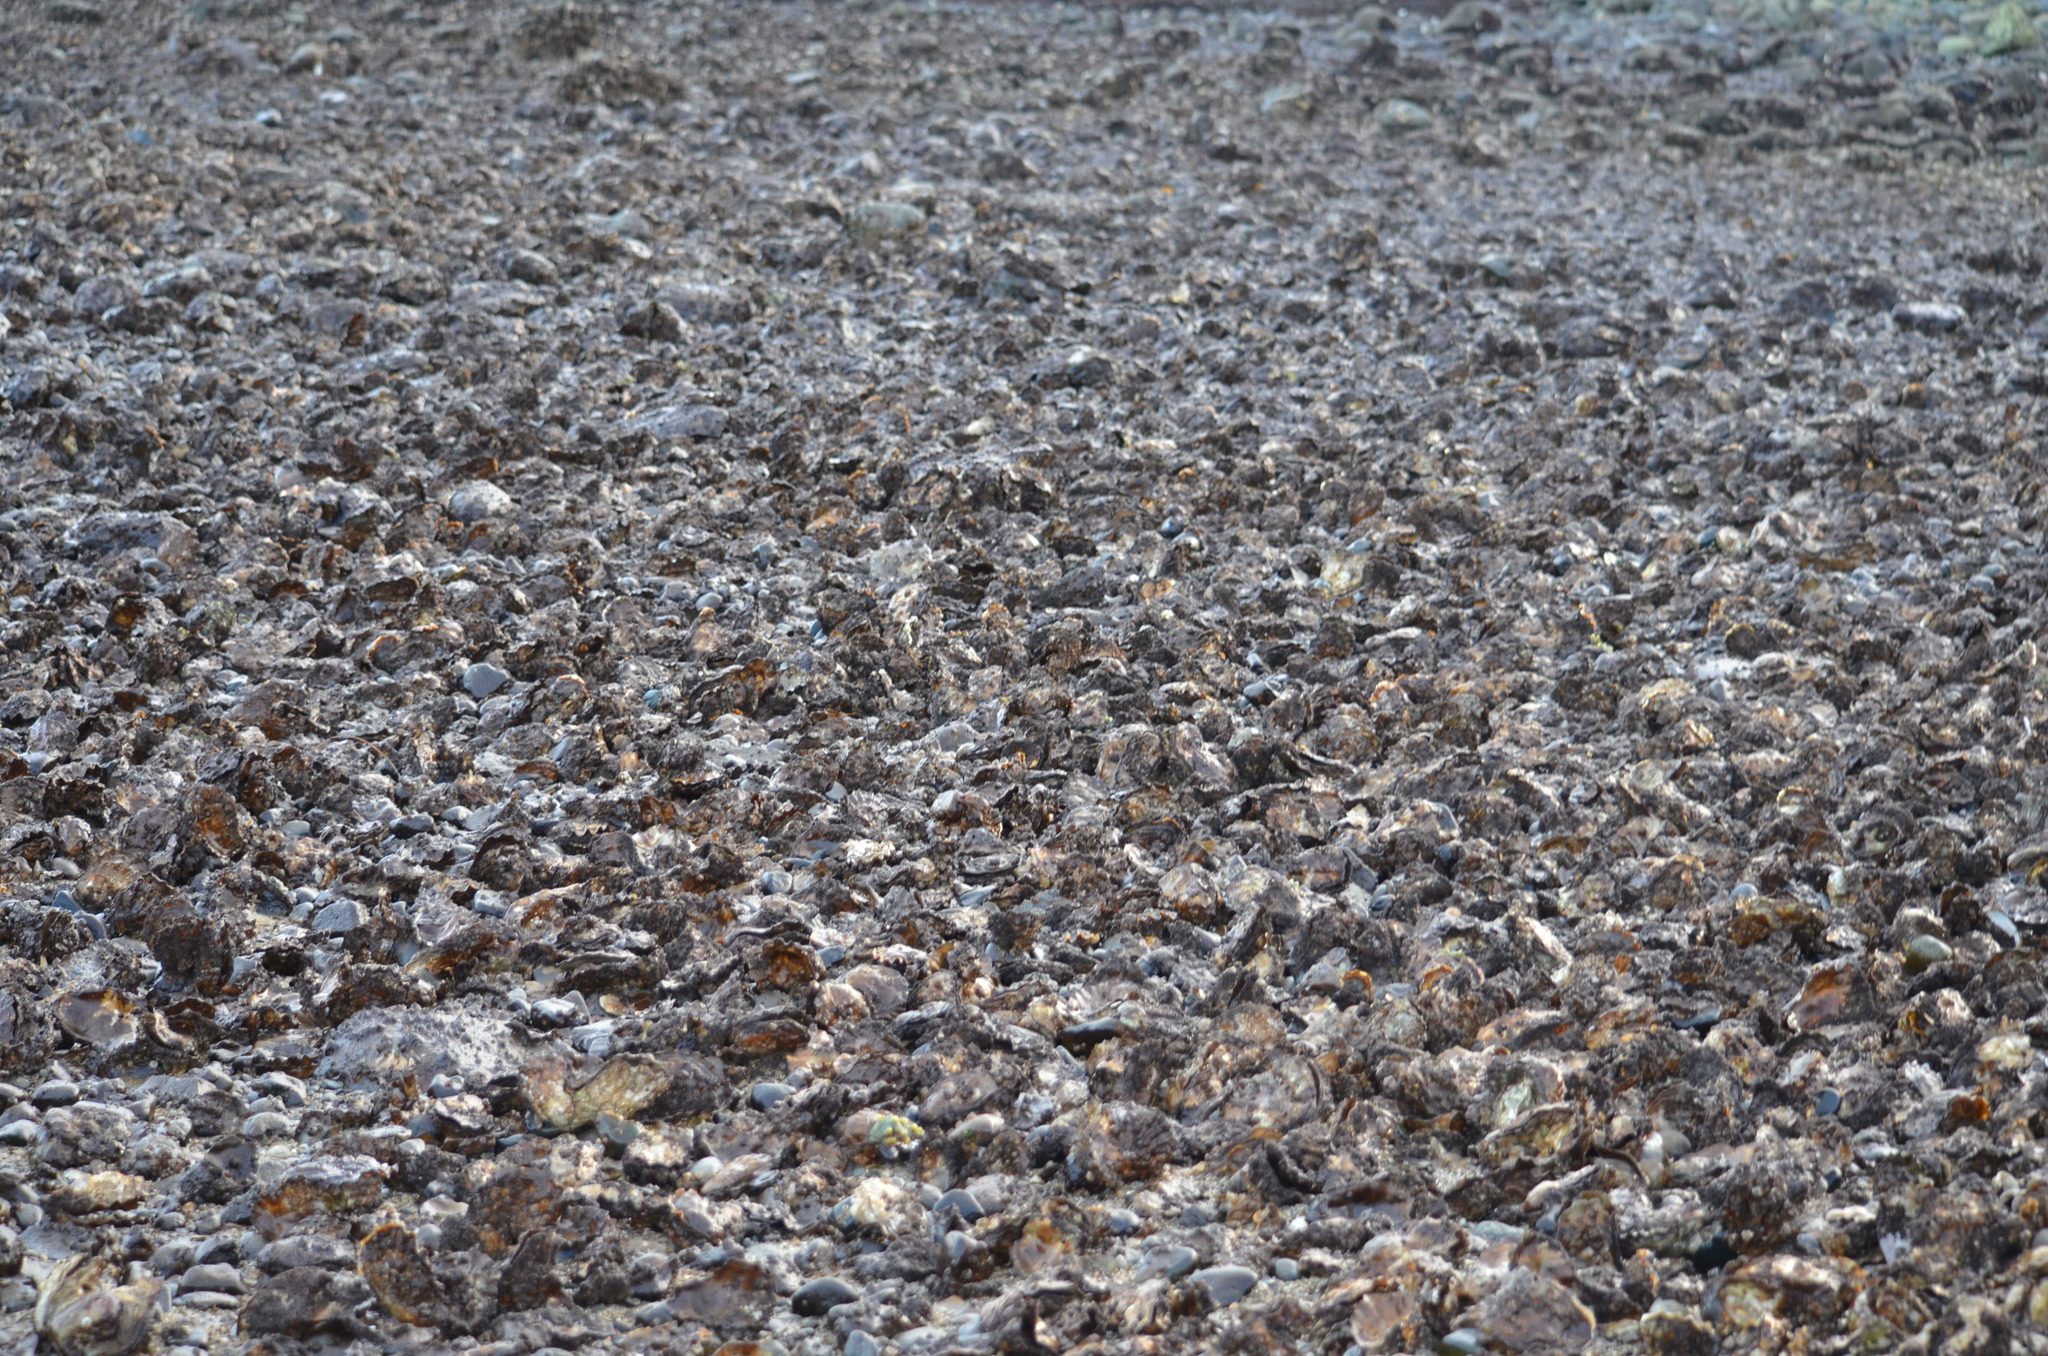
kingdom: Animalia
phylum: Mollusca
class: Bivalvia
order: Ostreida
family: Ostreidae
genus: Magallana
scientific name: Magallana gigas
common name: Pacific oyster
